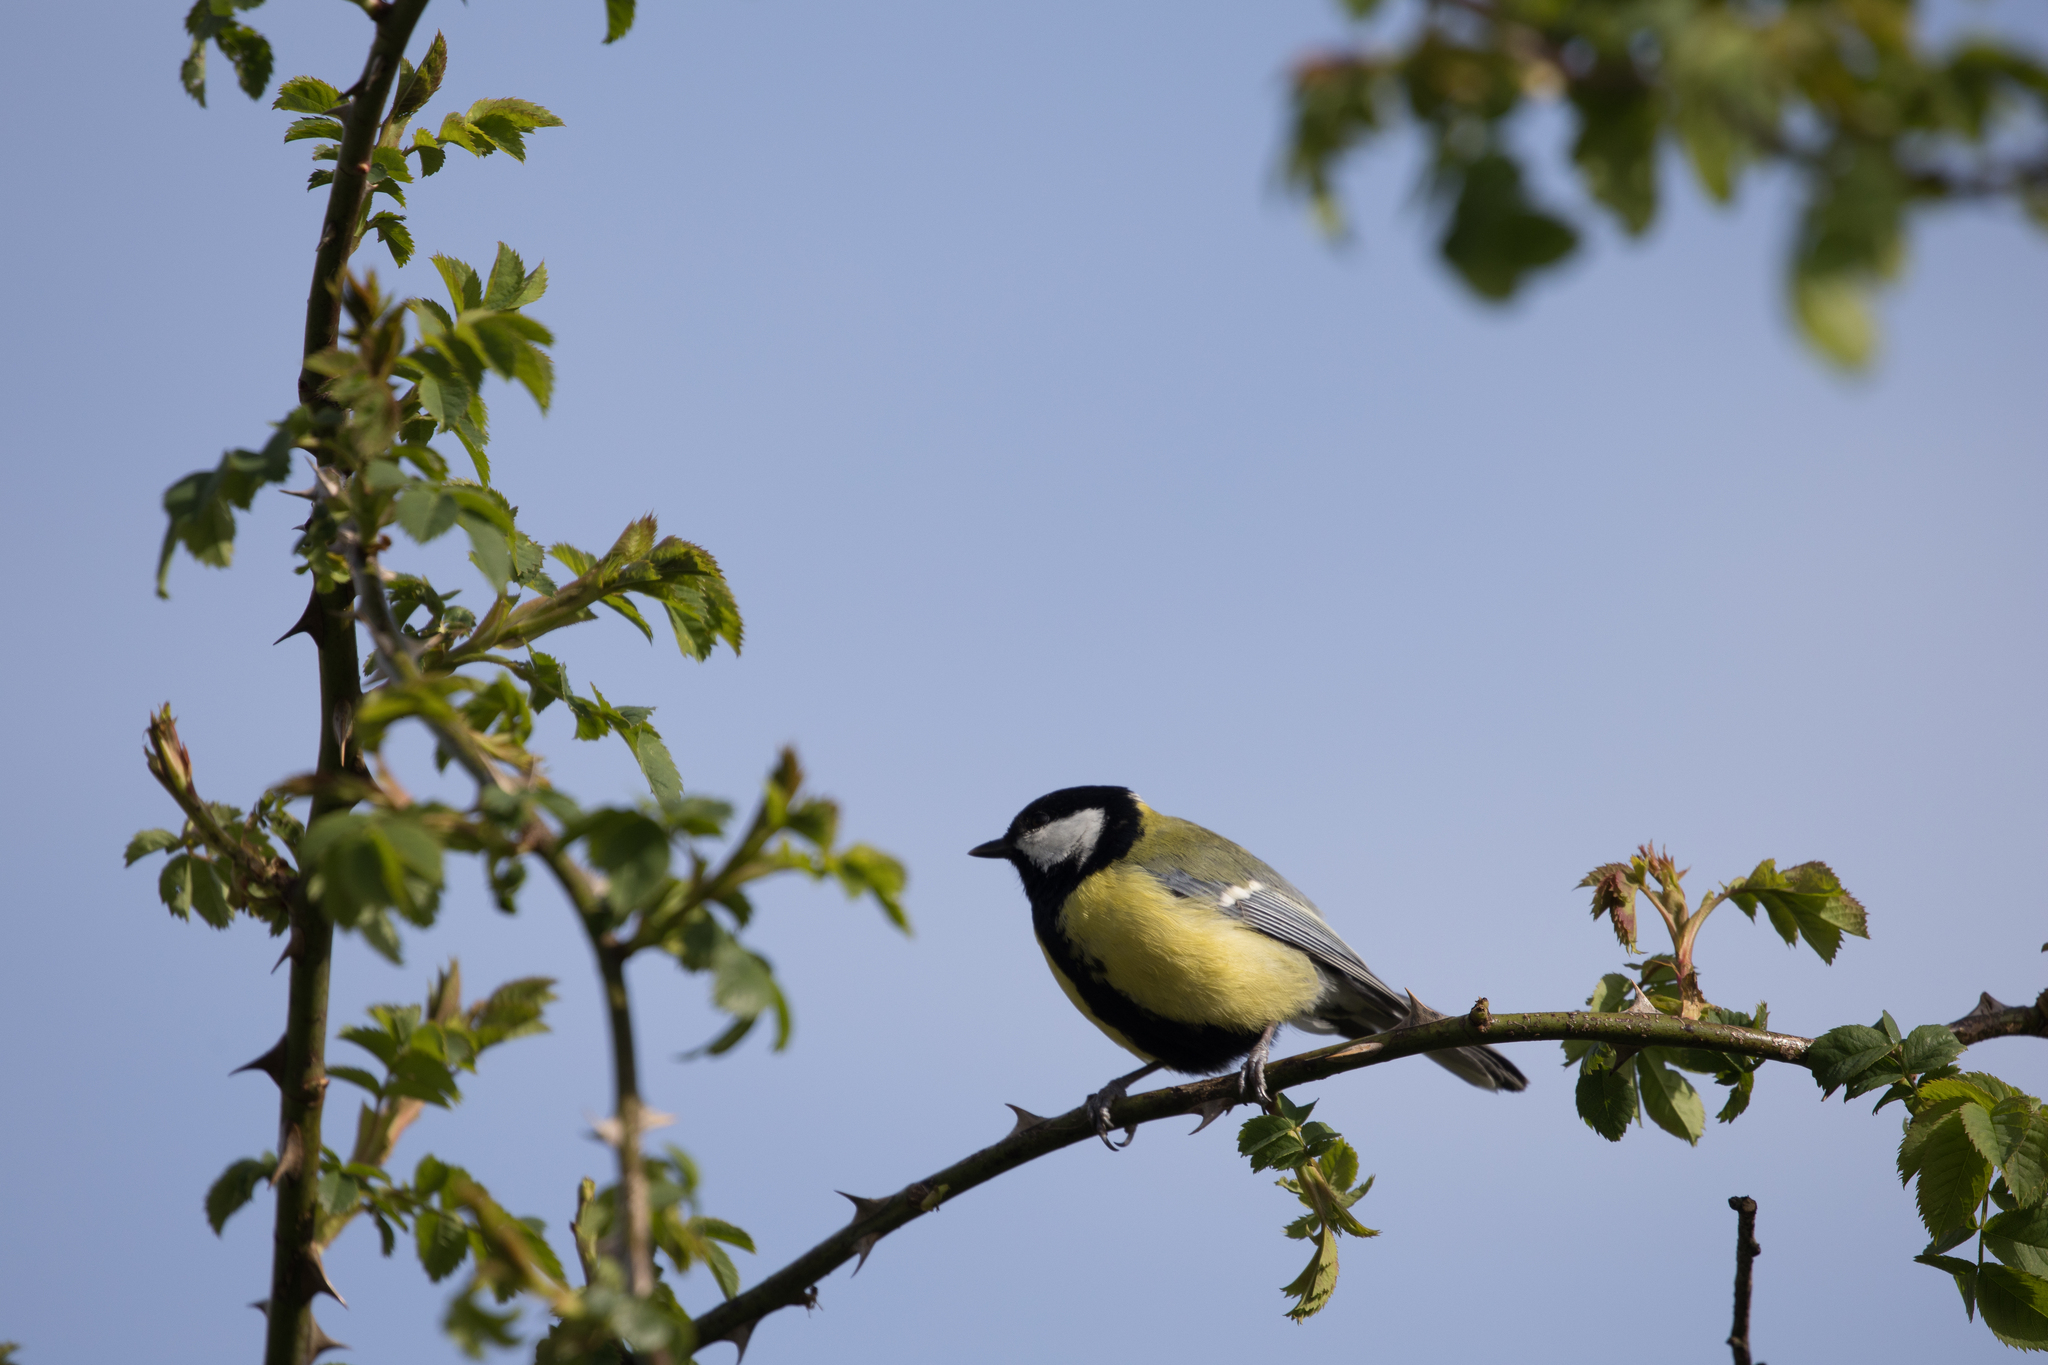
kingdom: Animalia
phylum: Chordata
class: Aves
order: Passeriformes
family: Paridae
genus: Parus
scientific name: Parus major
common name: Great tit
